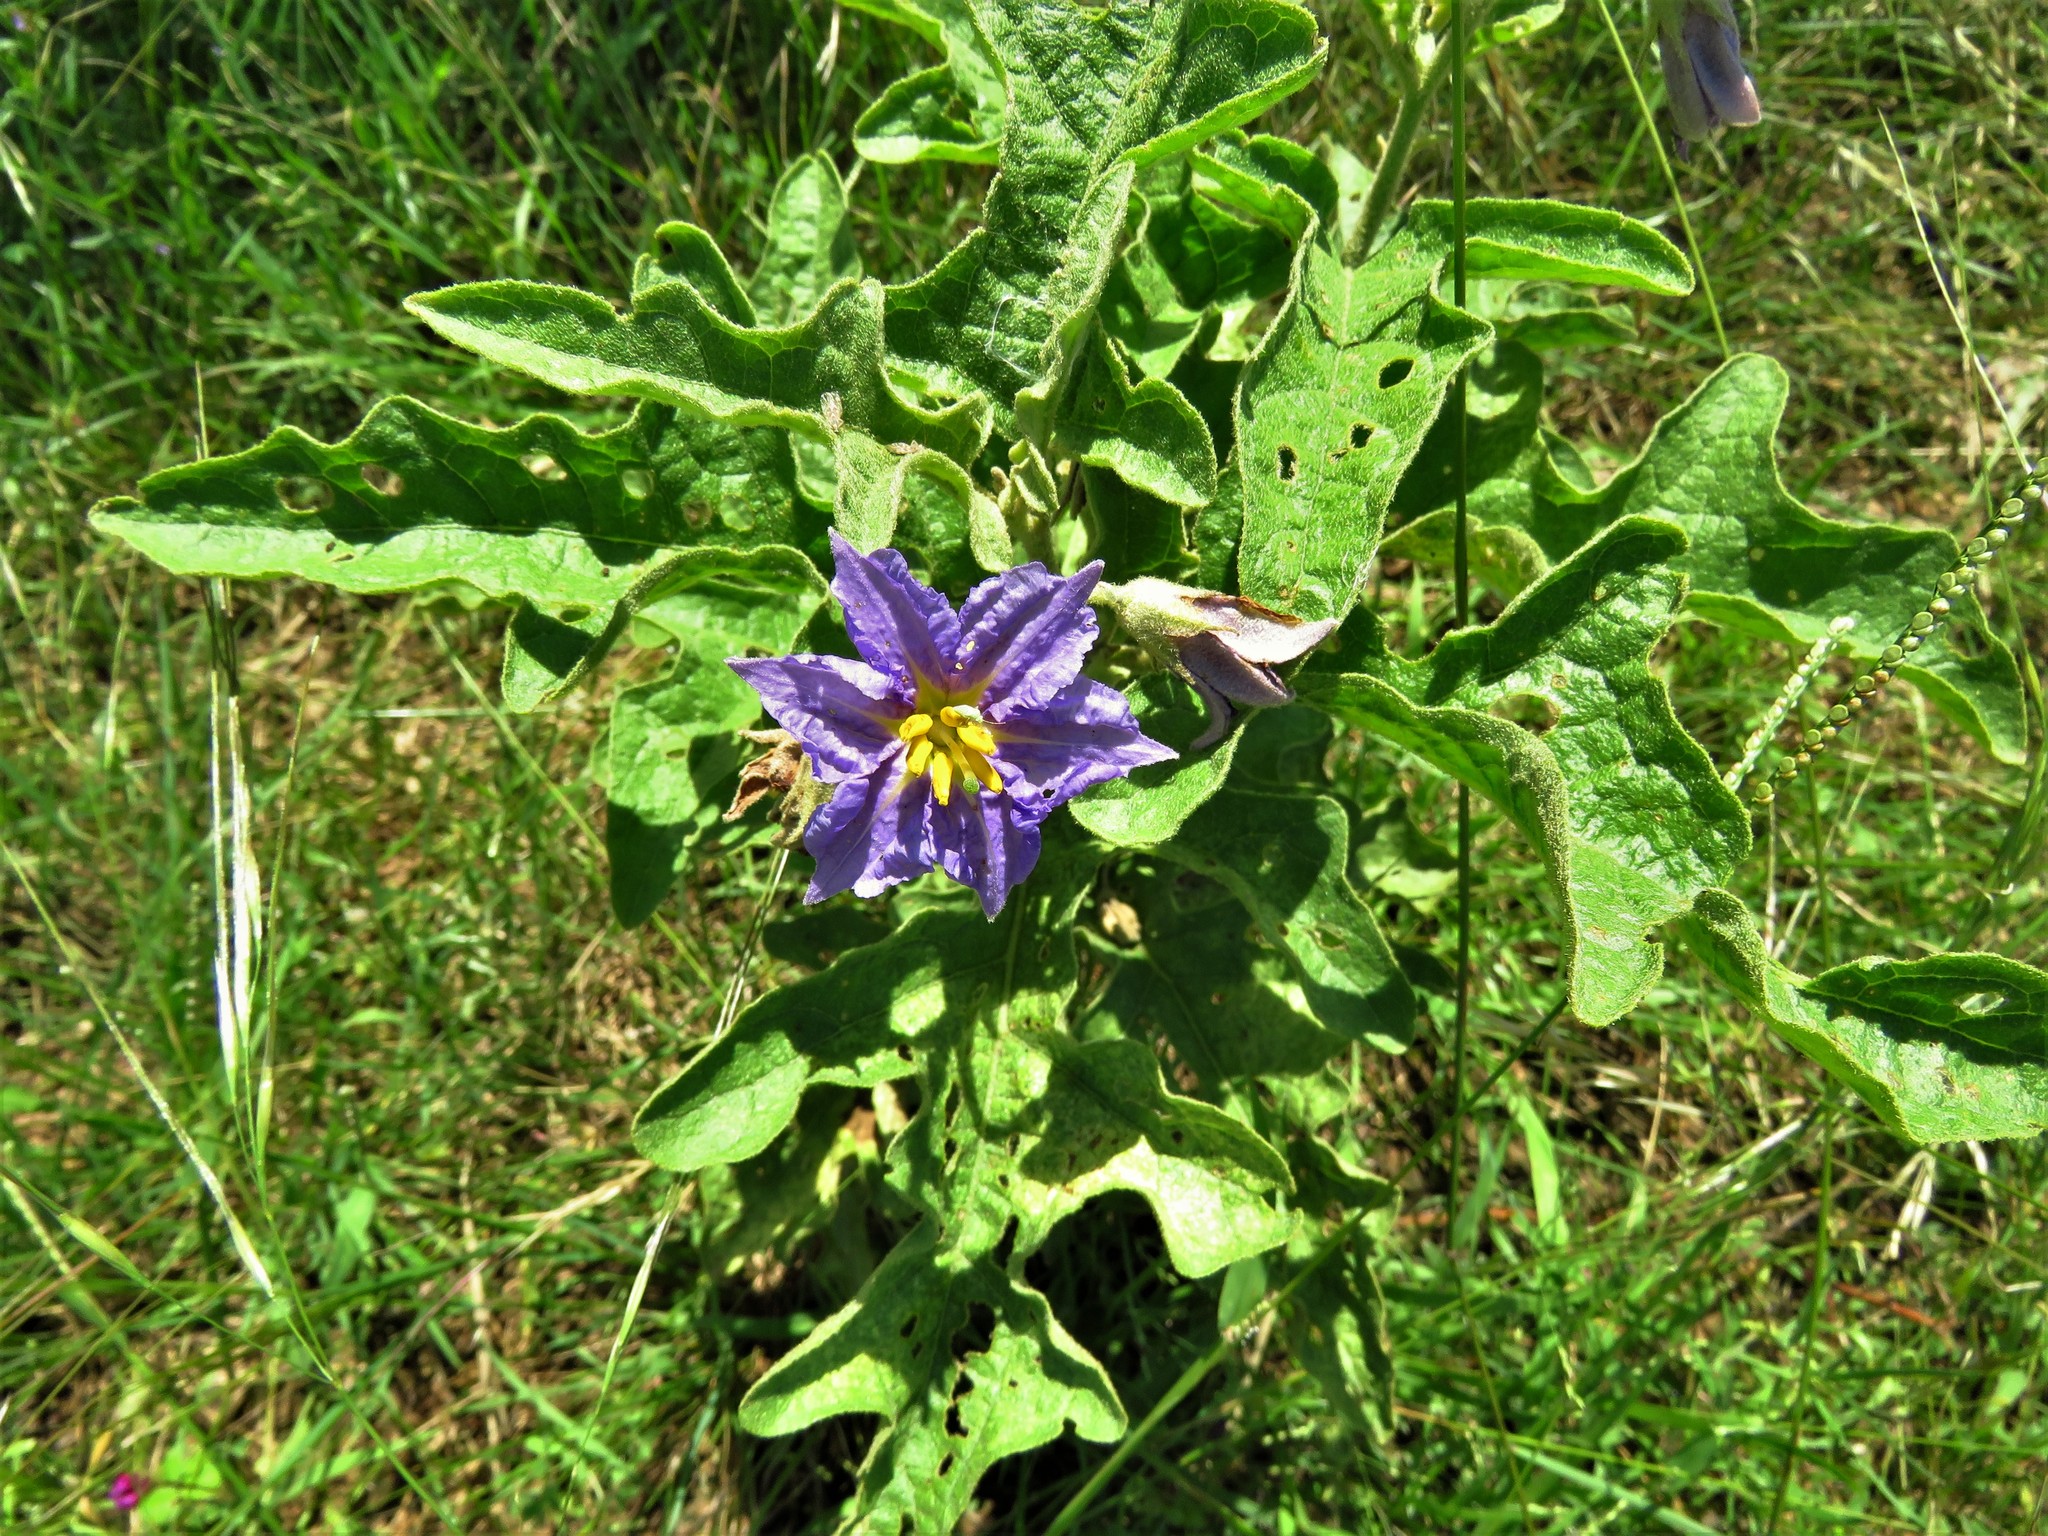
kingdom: Plantae
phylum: Tracheophyta
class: Magnoliopsida
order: Solanales
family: Solanaceae
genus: Solanum
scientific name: Solanum dimidiatum
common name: Carolina horse-nettle
